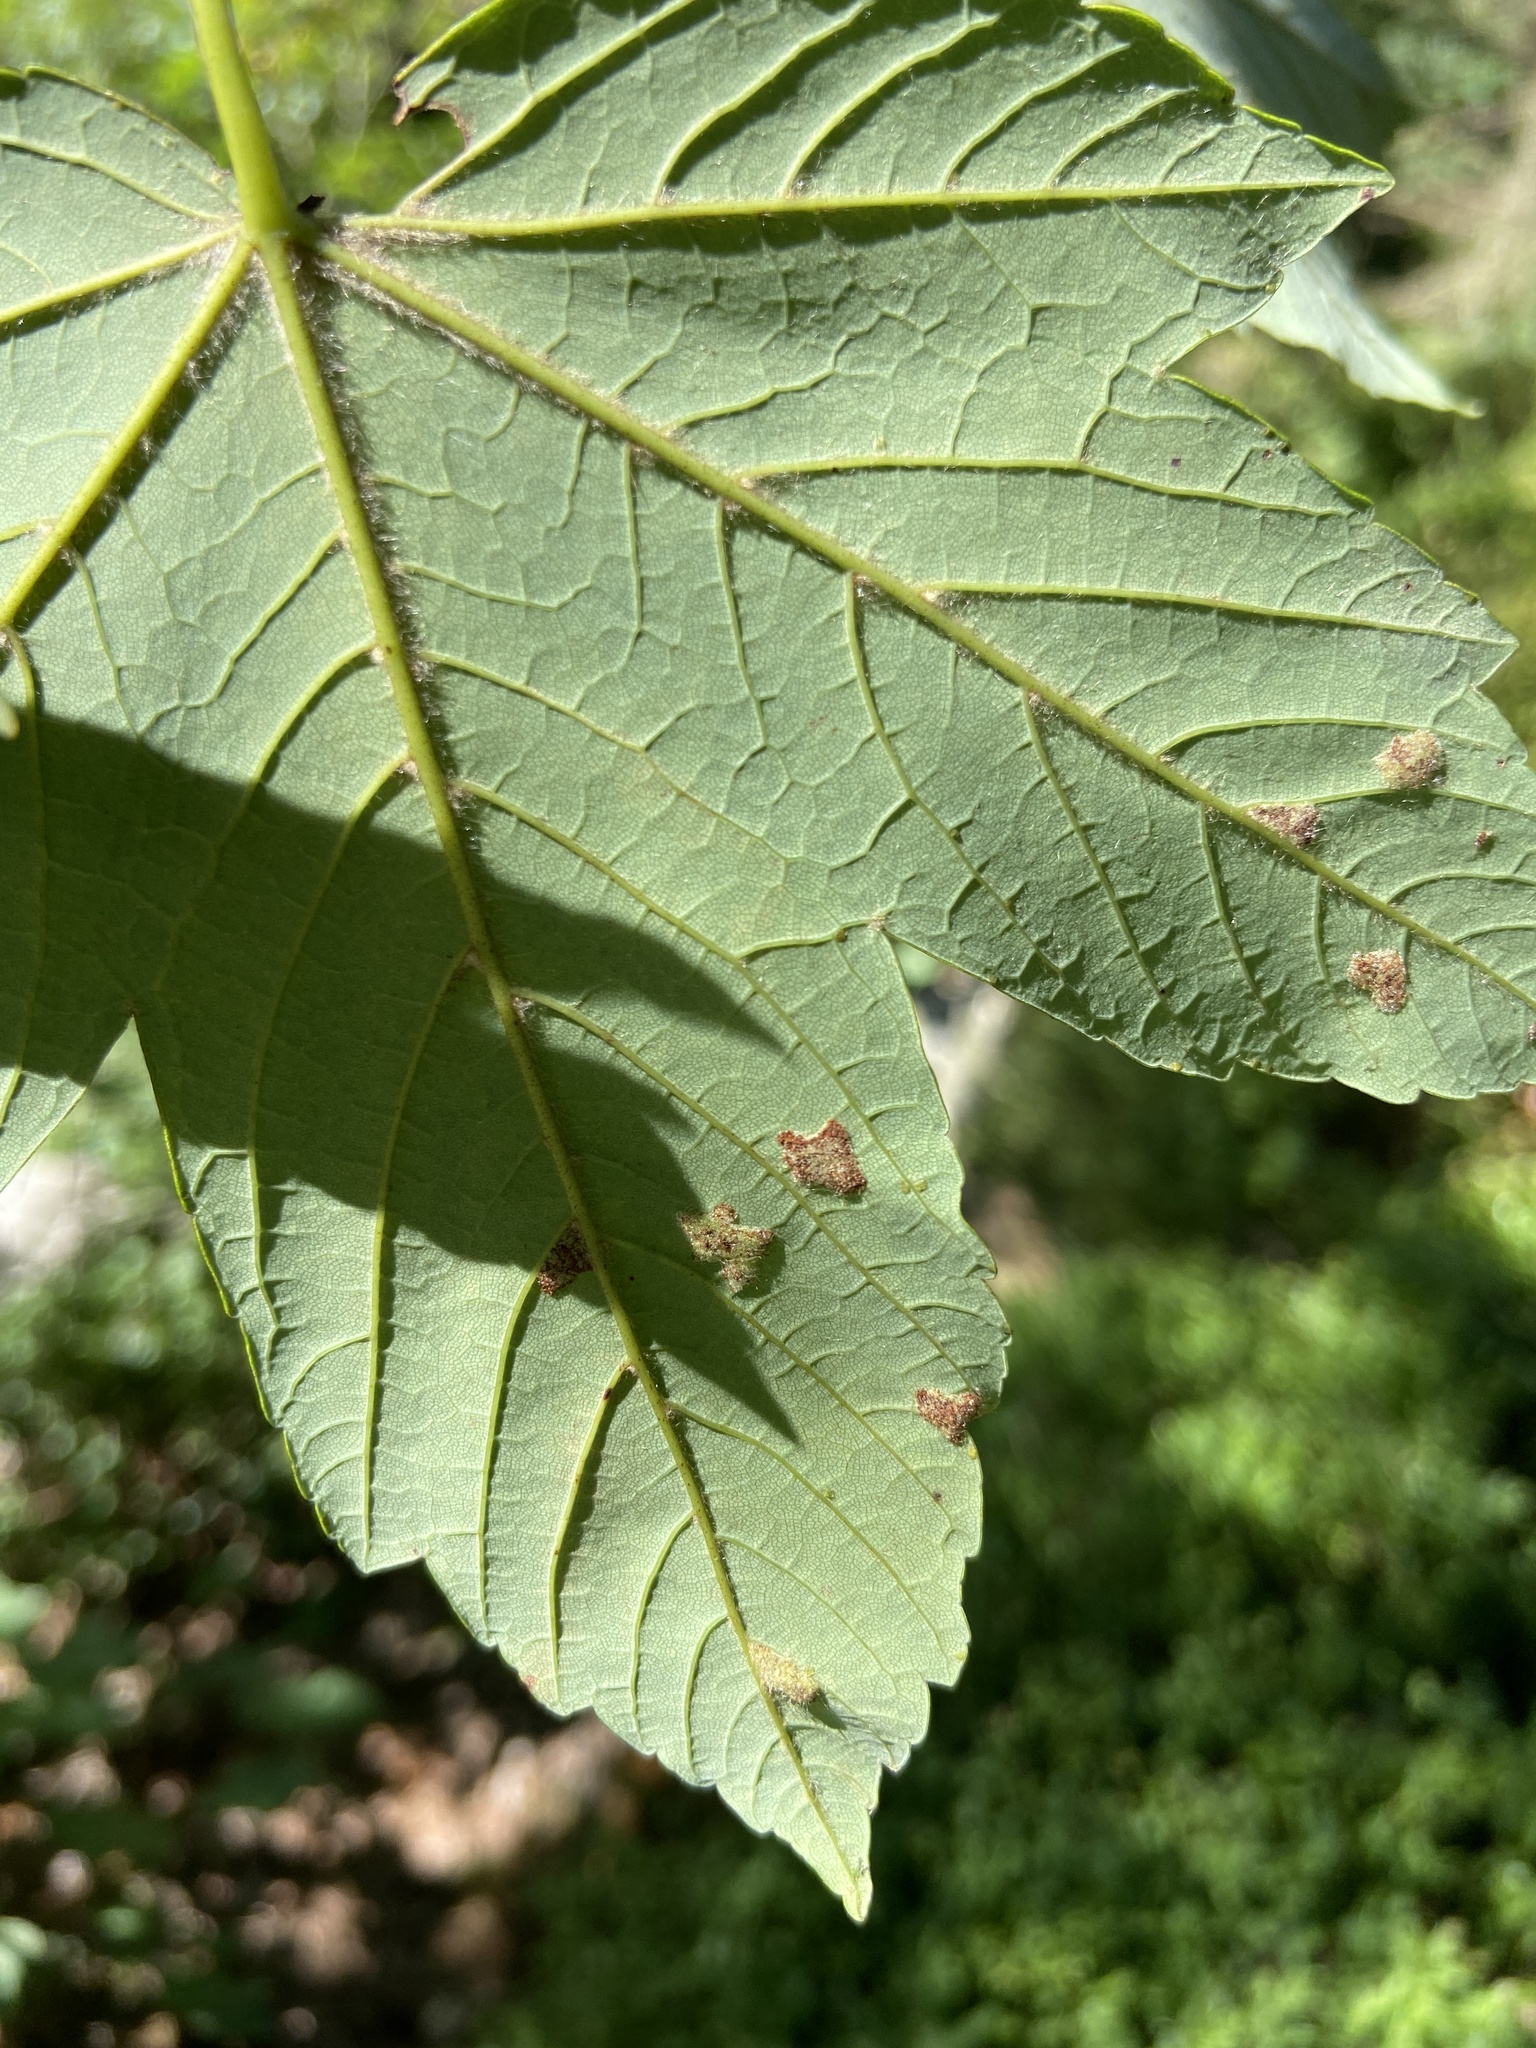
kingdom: Animalia
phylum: Arthropoda
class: Arachnida
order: Trombidiformes
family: Eriophyidae
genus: Aceria
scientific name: Aceria pseudoplatani
